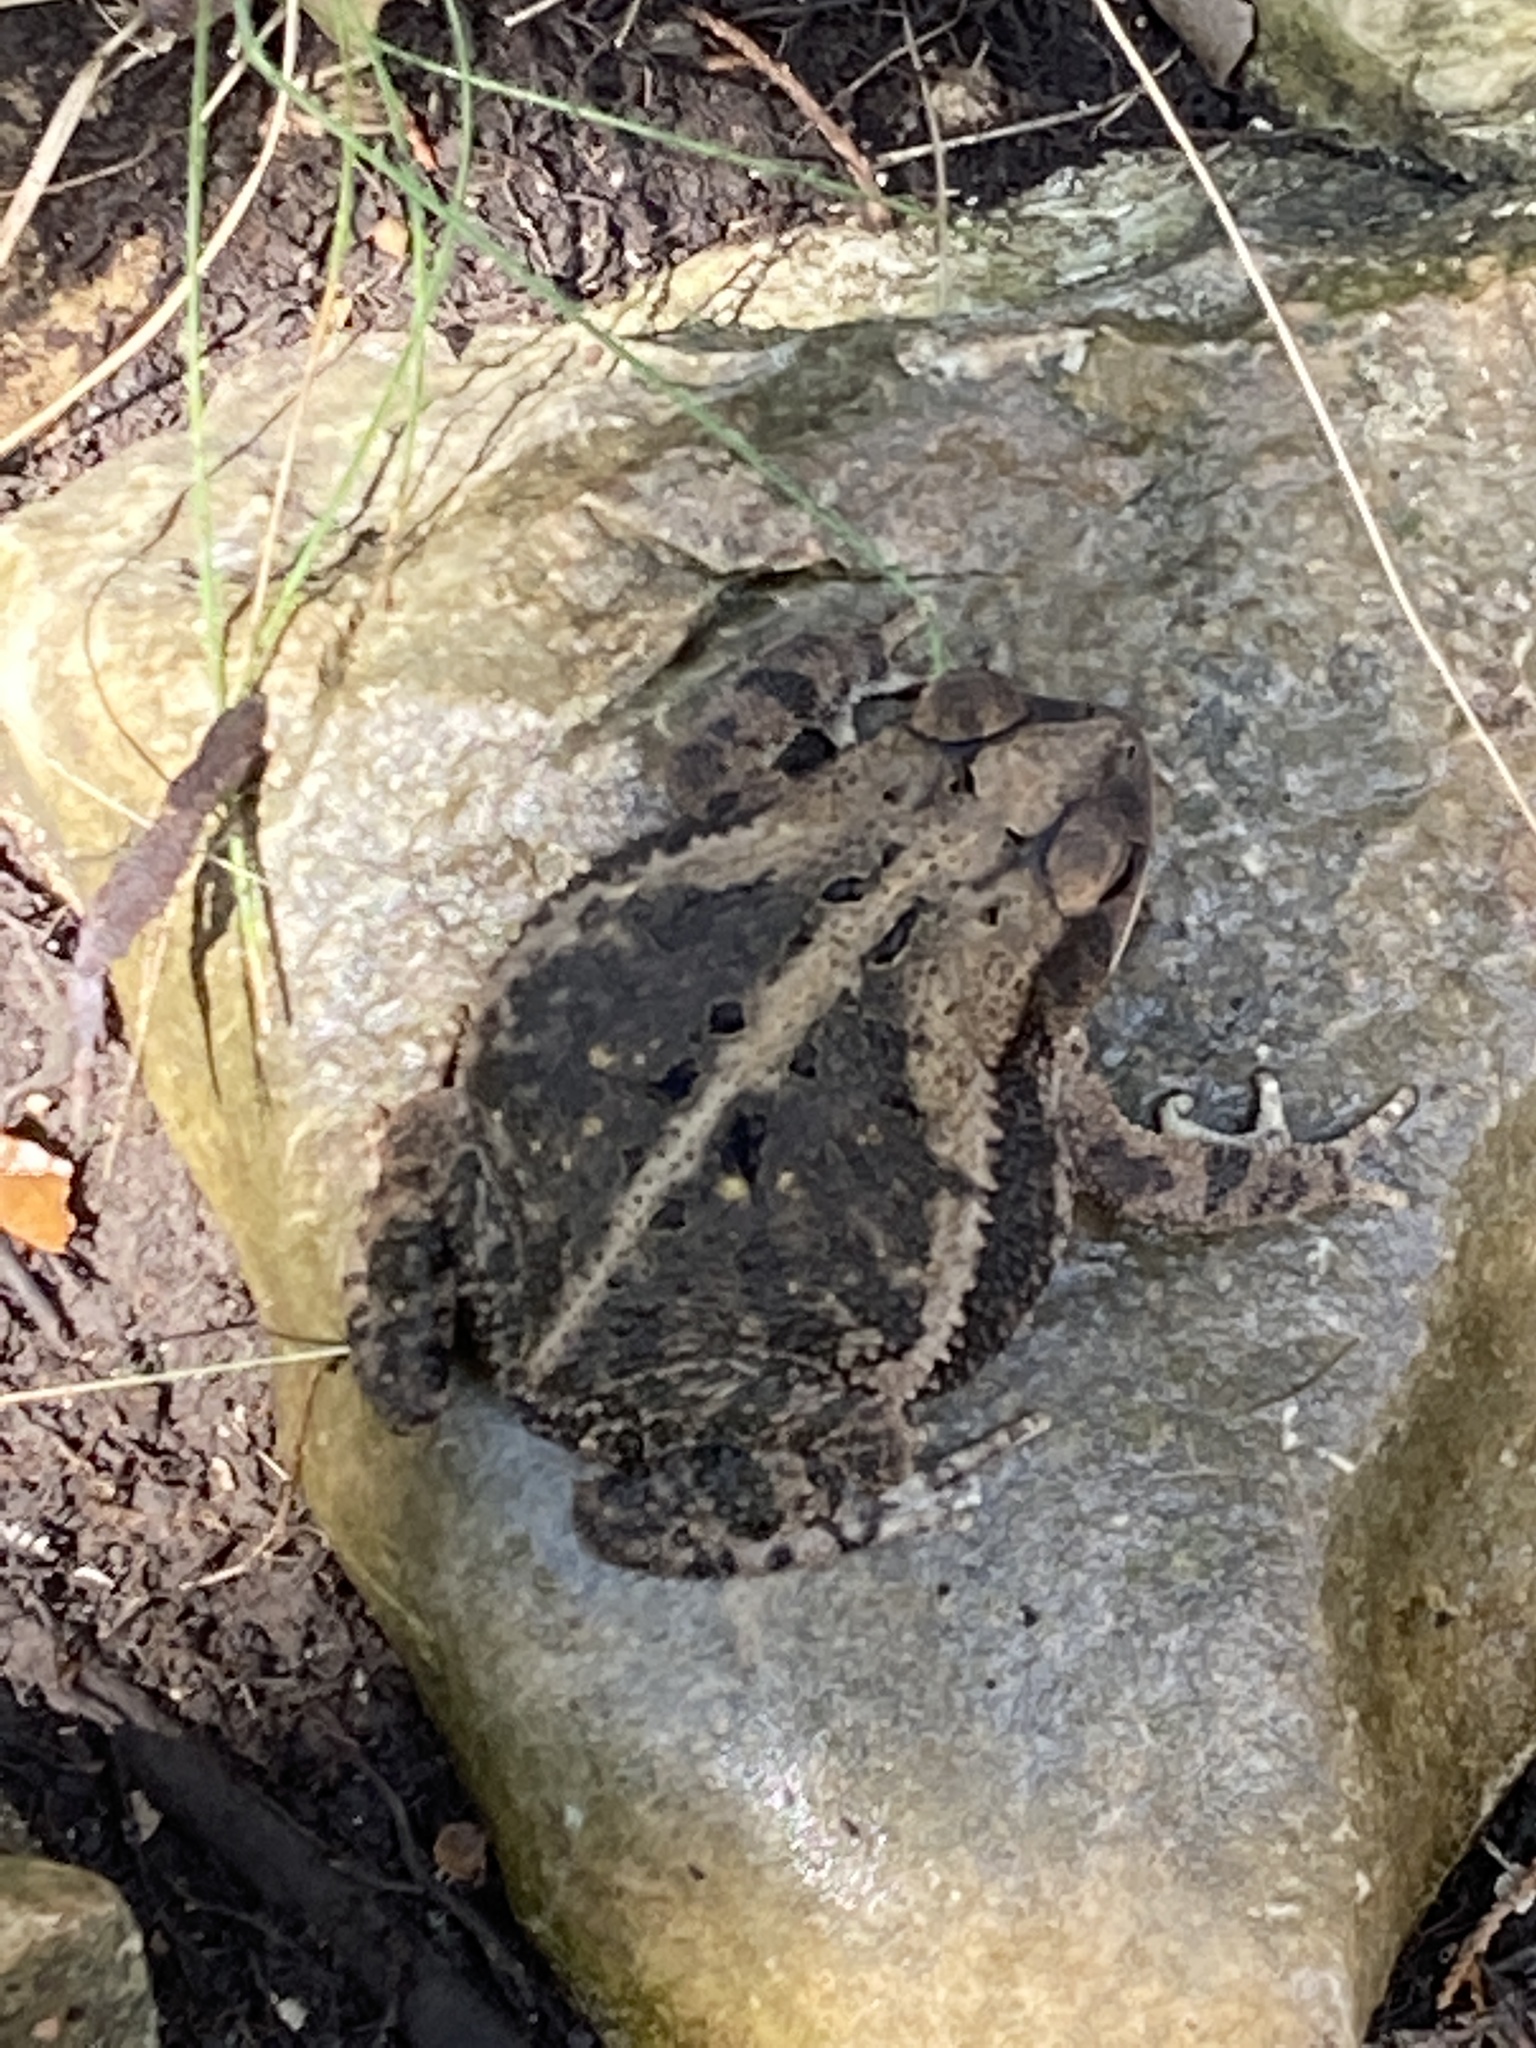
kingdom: Animalia
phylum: Chordata
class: Amphibia
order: Anura
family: Bufonidae
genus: Incilius
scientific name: Incilius nebulifer
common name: Gulf coast toad
